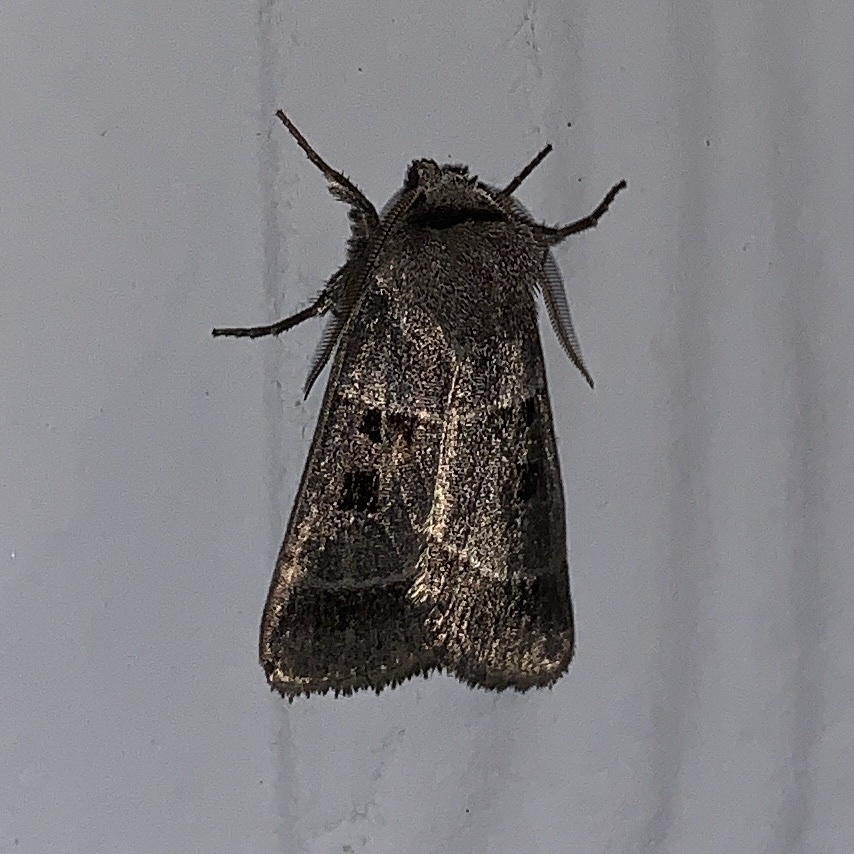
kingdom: Animalia
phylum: Arthropoda
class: Insecta
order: Lepidoptera
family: Noctuidae
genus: Agnorisma
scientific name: Agnorisma bollii
